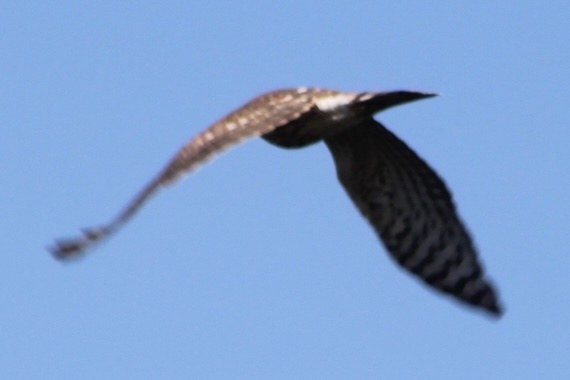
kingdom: Animalia
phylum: Chordata
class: Aves
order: Accipitriformes
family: Accipitridae
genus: Accipiter
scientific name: Accipiter striatus
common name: Sharp-shinned hawk
